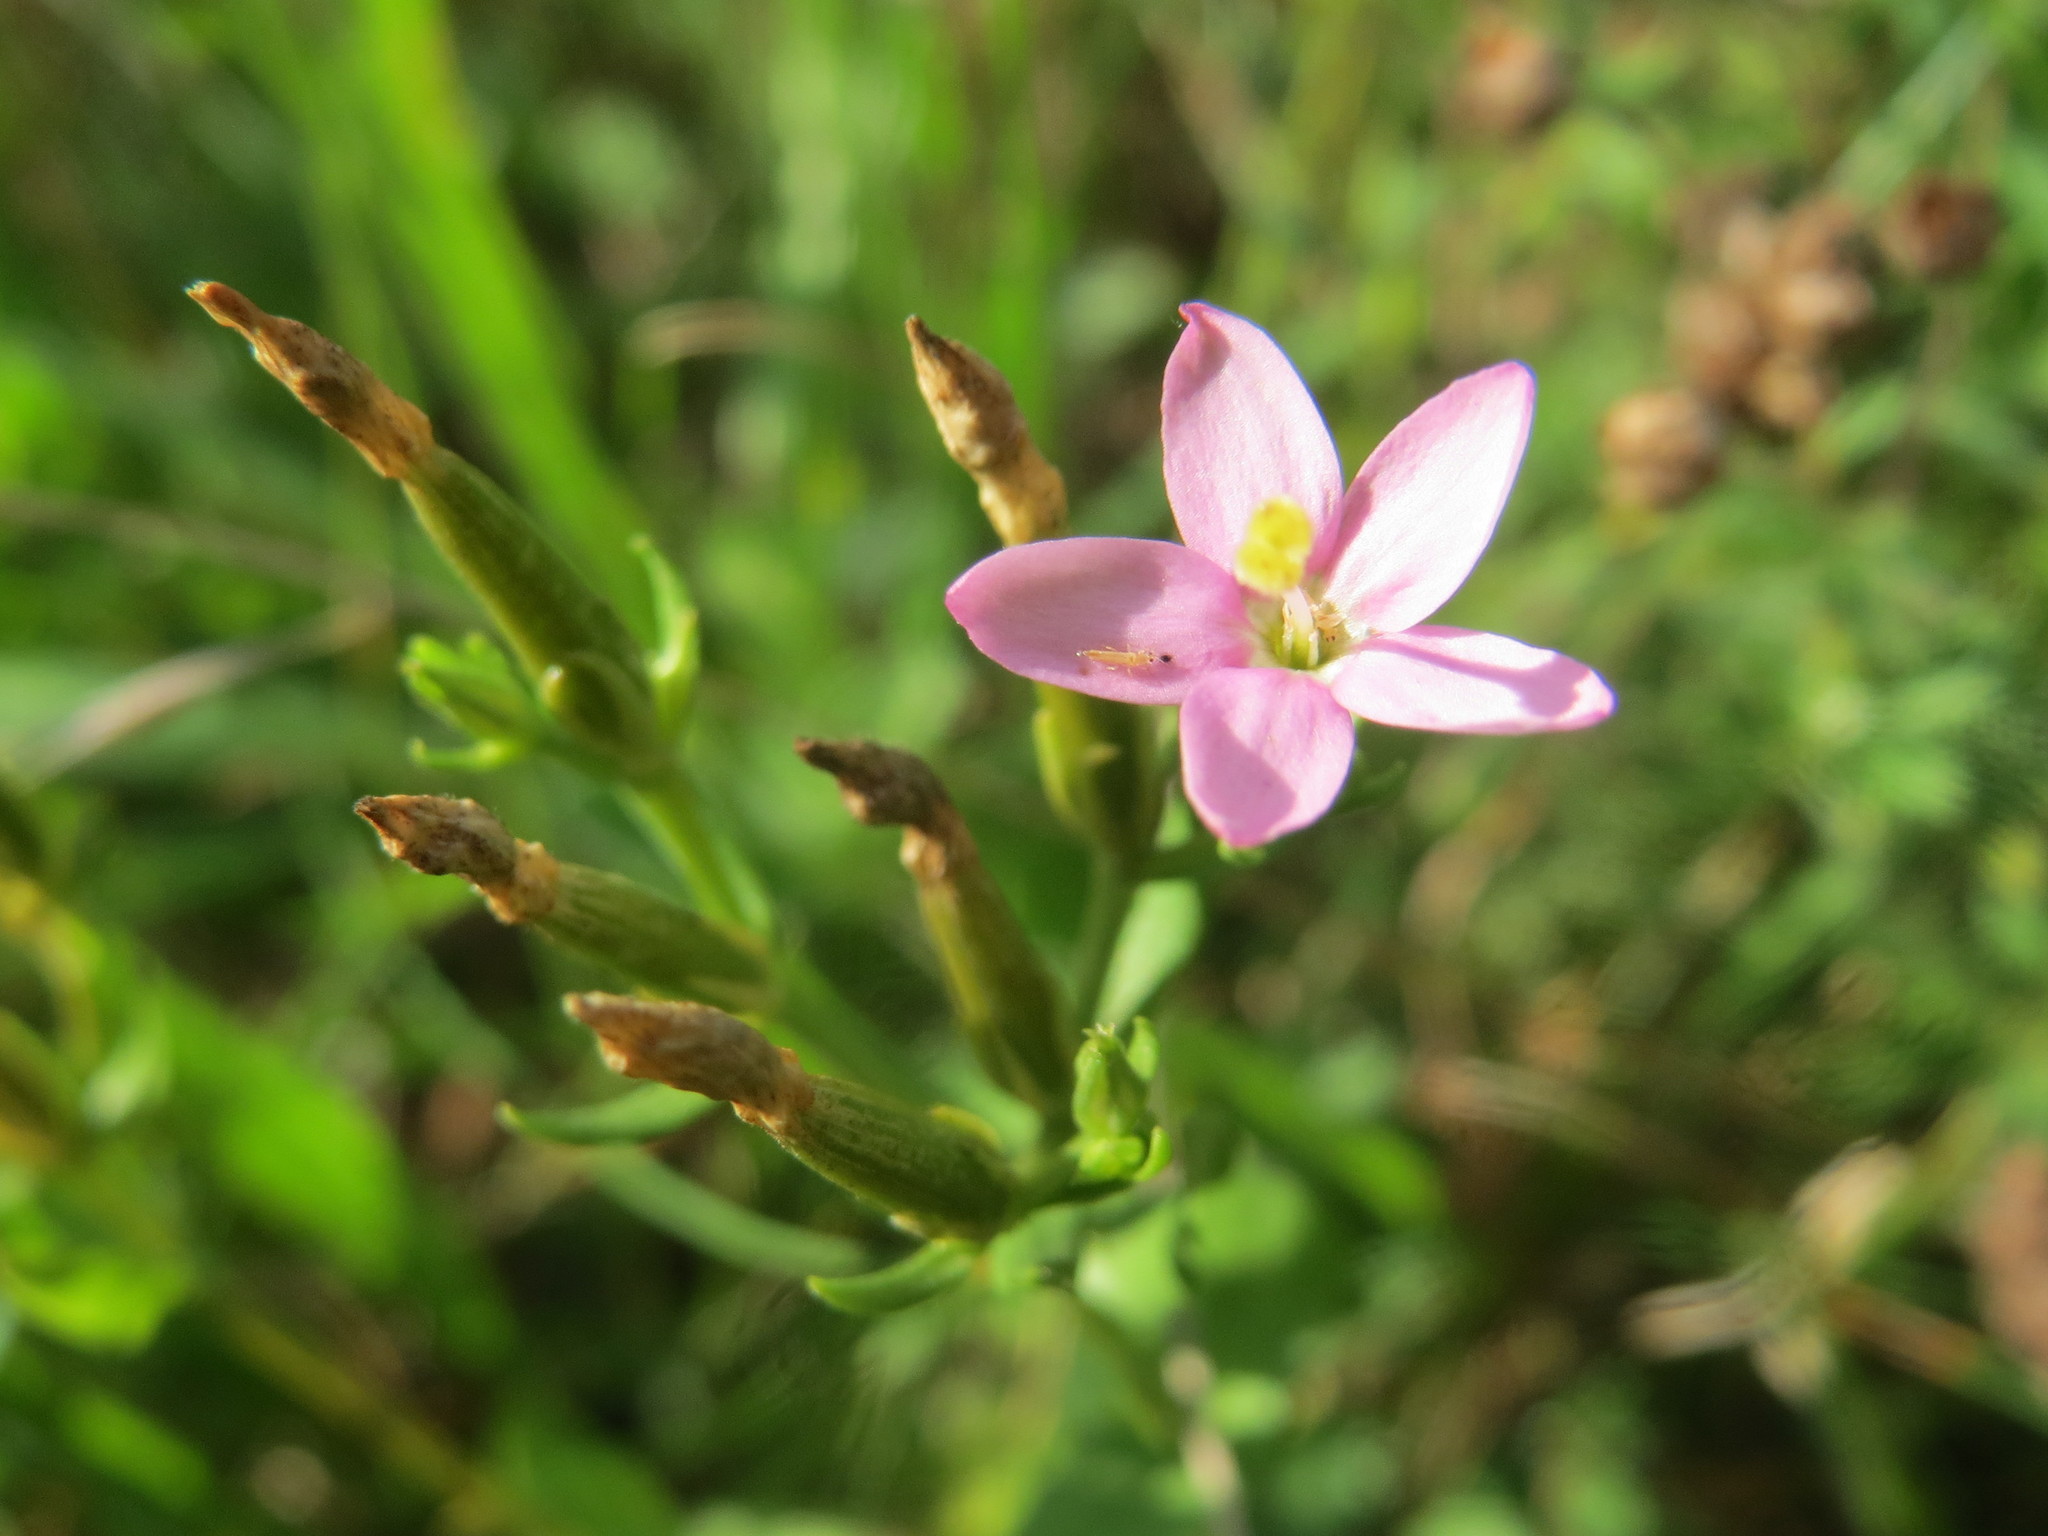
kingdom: Plantae
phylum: Tracheophyta
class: Magnoliopsida
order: Gentianales
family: Gentianaceae
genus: Centaurium
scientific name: Centaurium erythraea
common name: Common centaury
